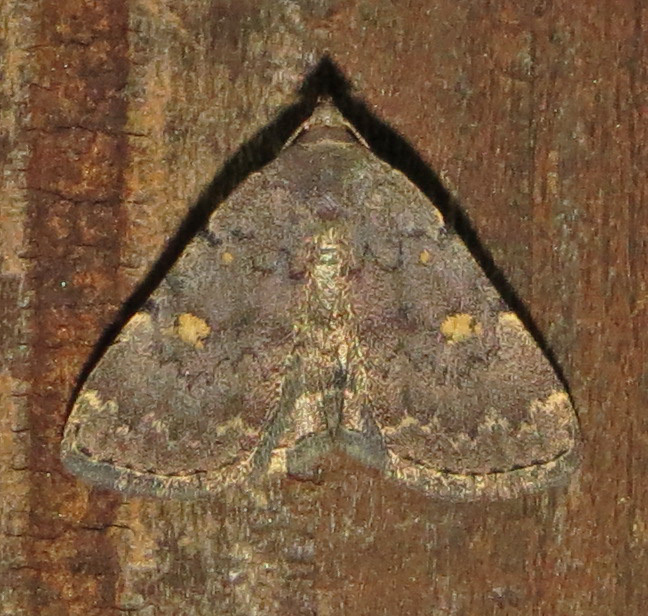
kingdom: Animalia
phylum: Arthropoda
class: Insecta
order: Lepidoptera
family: Erebidae
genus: Idia
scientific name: Idia aemula
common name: Common idia moth
